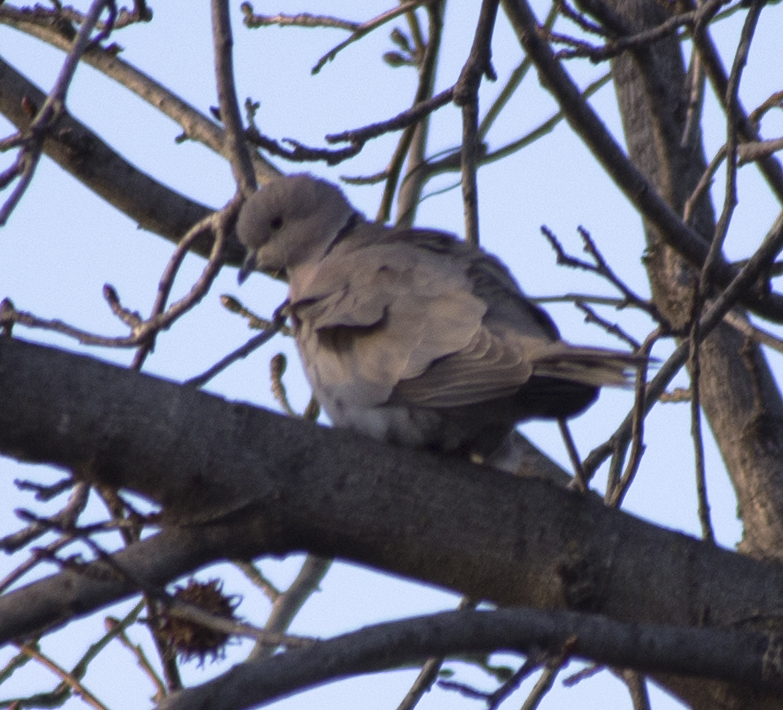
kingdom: Animalia
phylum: Chordata
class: Aves
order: Columbiformes
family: Columbidae
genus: Streptopelia
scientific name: Streptopelia decaocto
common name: Eurasian collared dove
